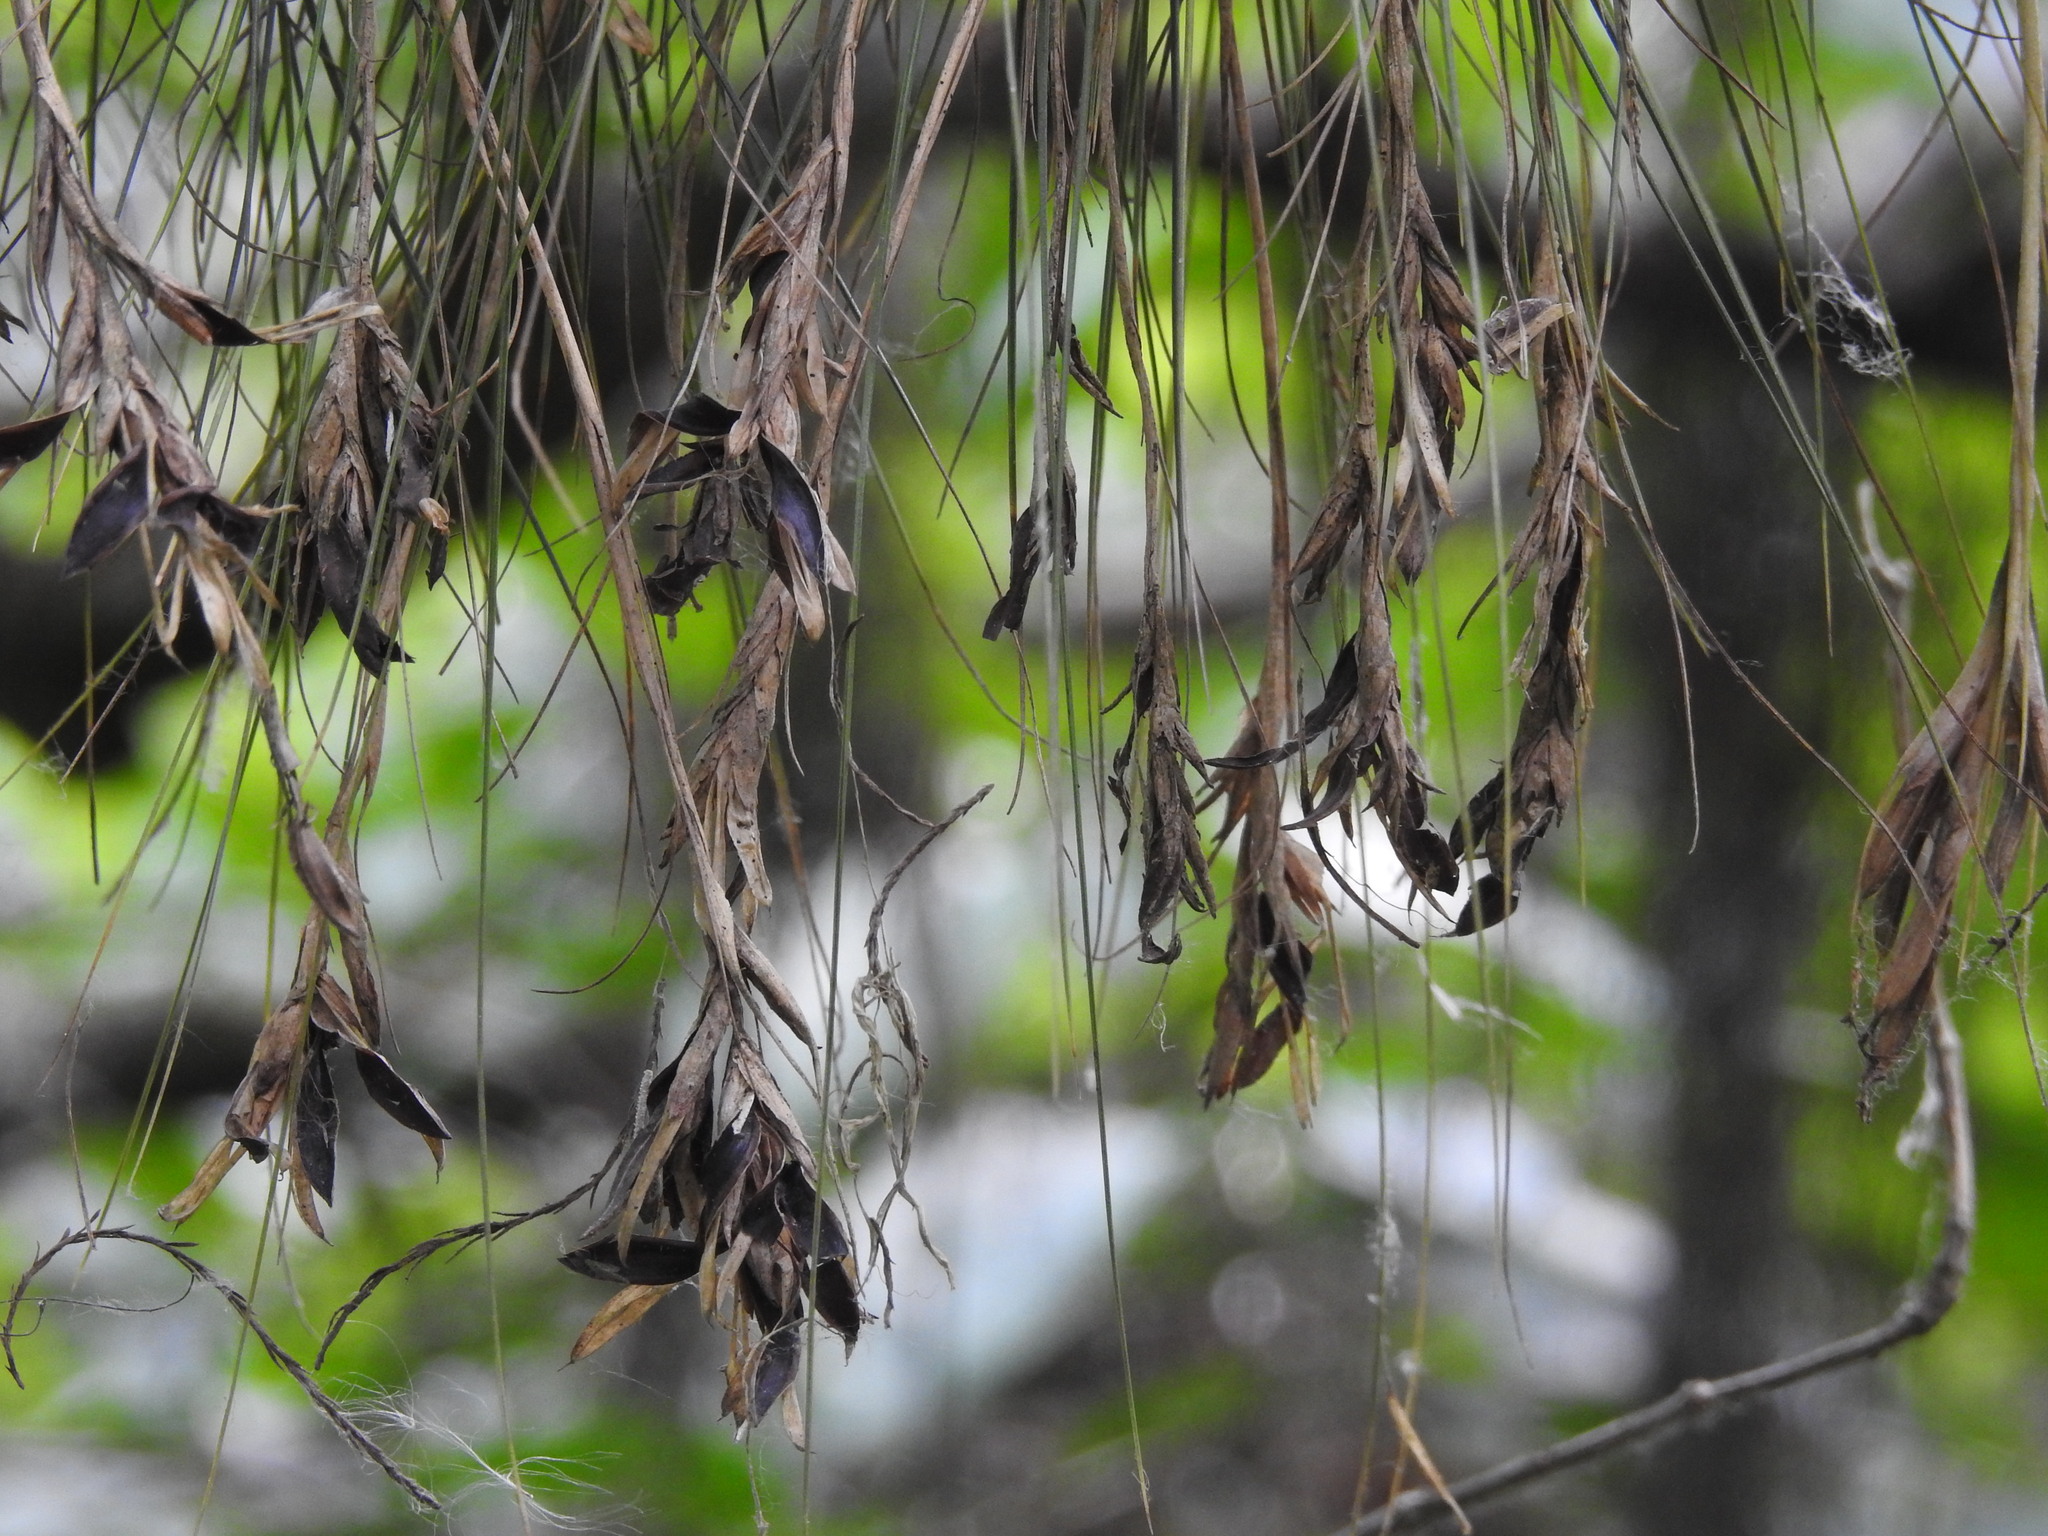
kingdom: Plantae
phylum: Tracheophyta
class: Liliopsida
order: Poales
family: Bromeliaceae
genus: Tillandsia
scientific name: Tillandsia setacea
